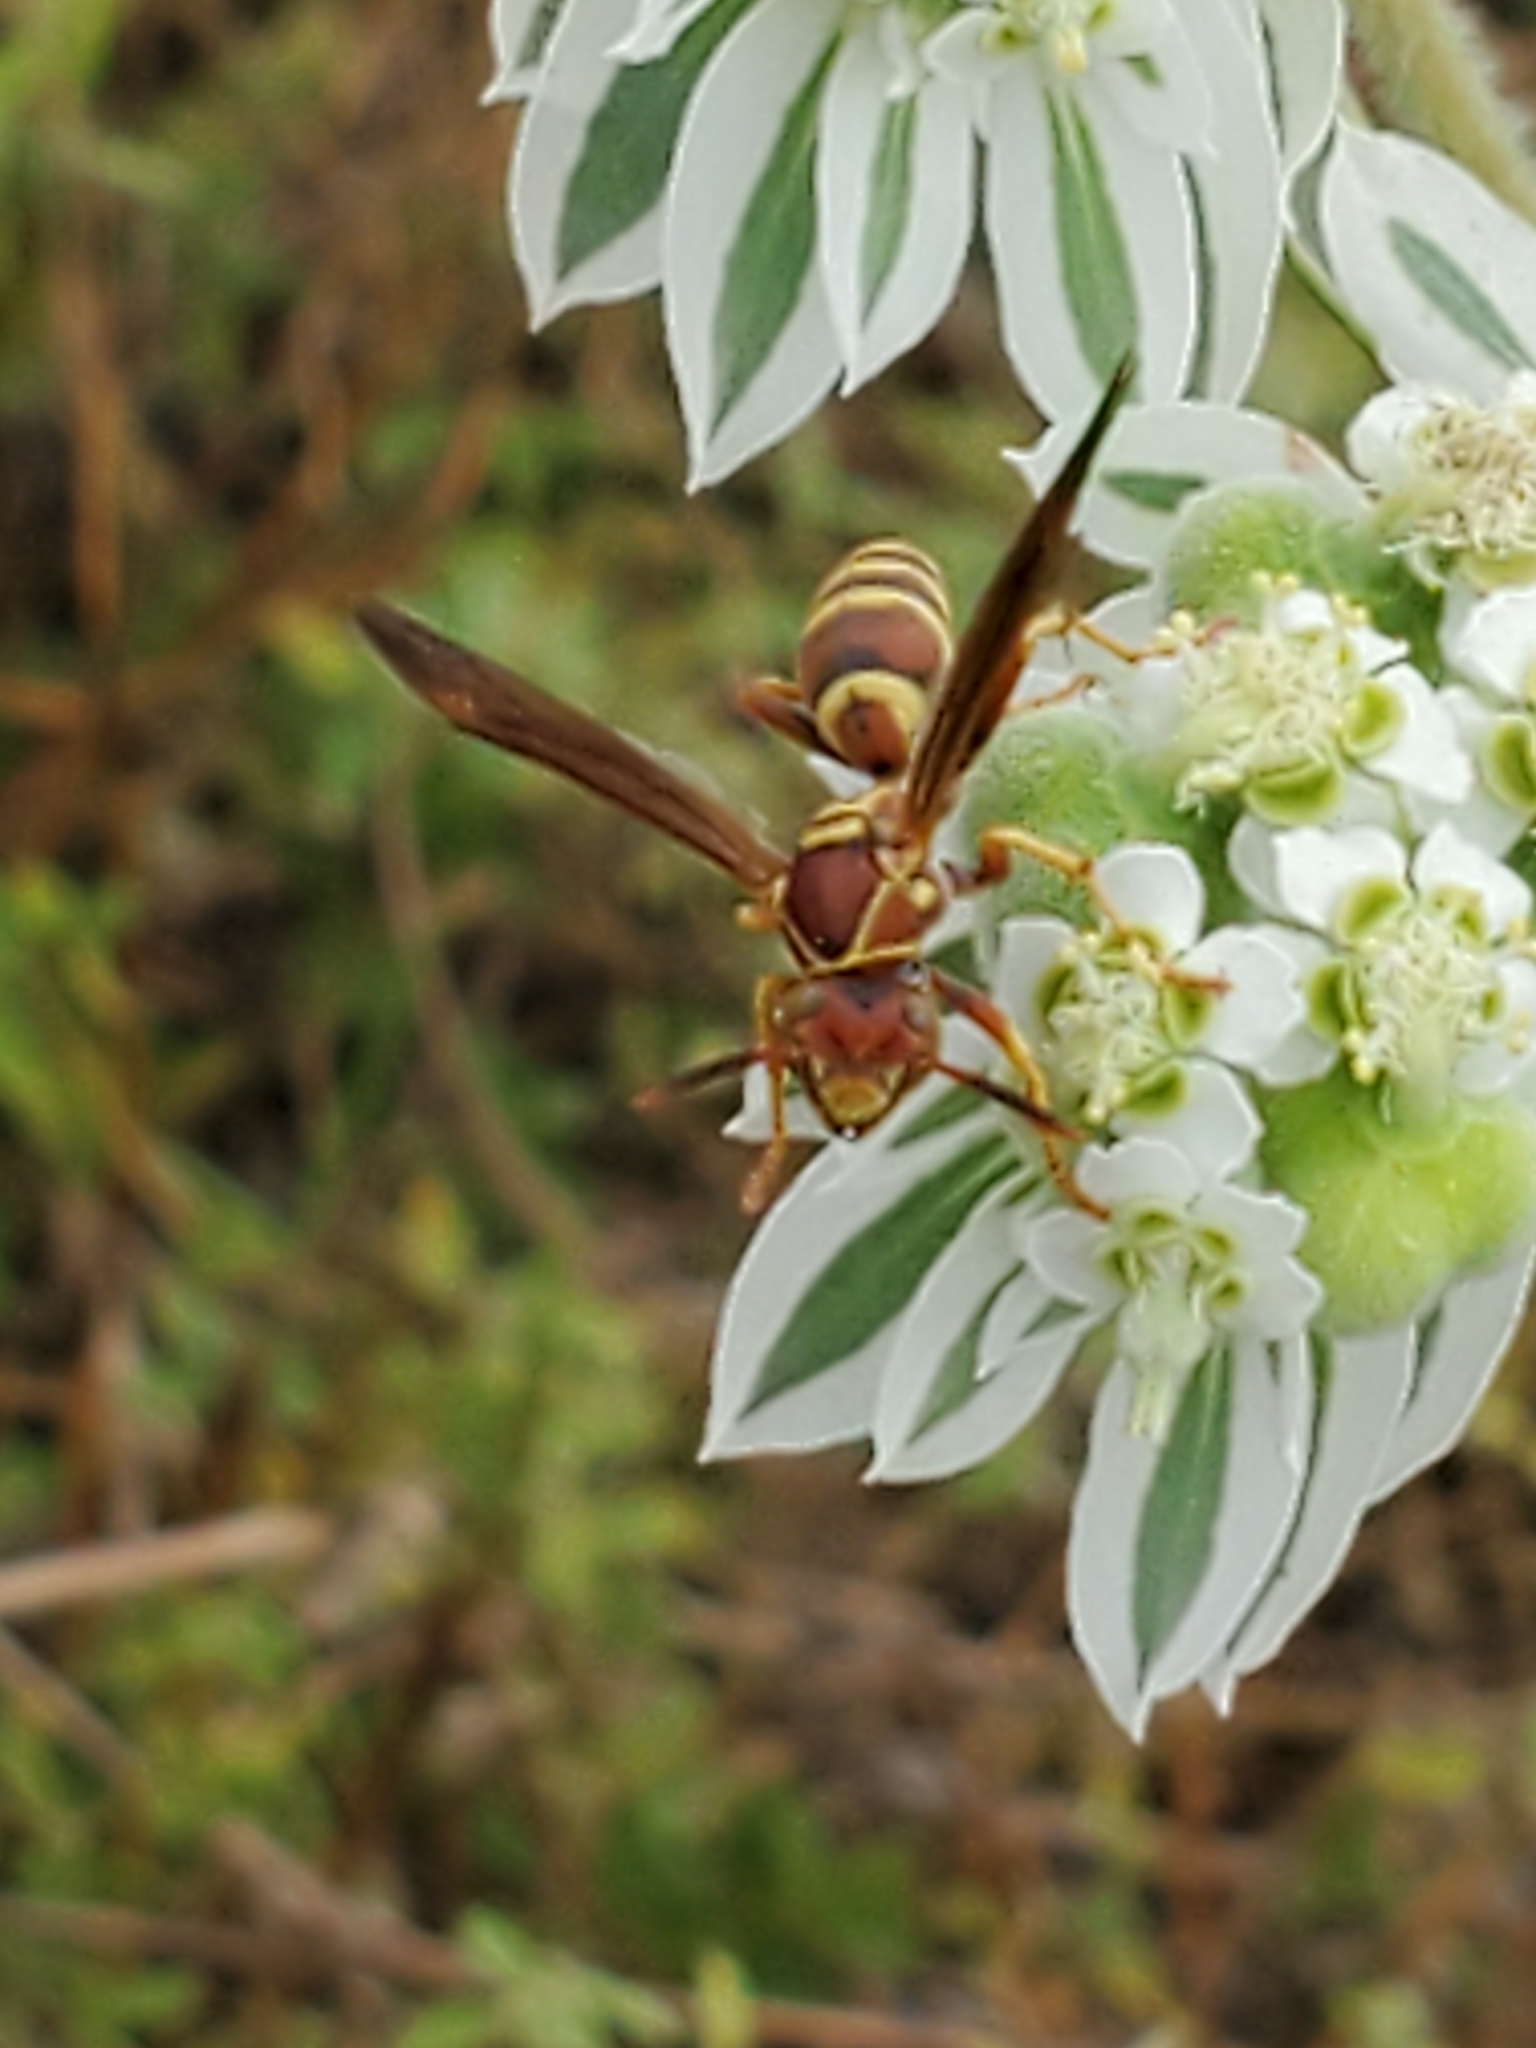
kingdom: Animalia
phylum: Arthropoda
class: Insecta
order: Hymenoptera
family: Eumenidae
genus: Polistes
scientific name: Polistes dorsalis
